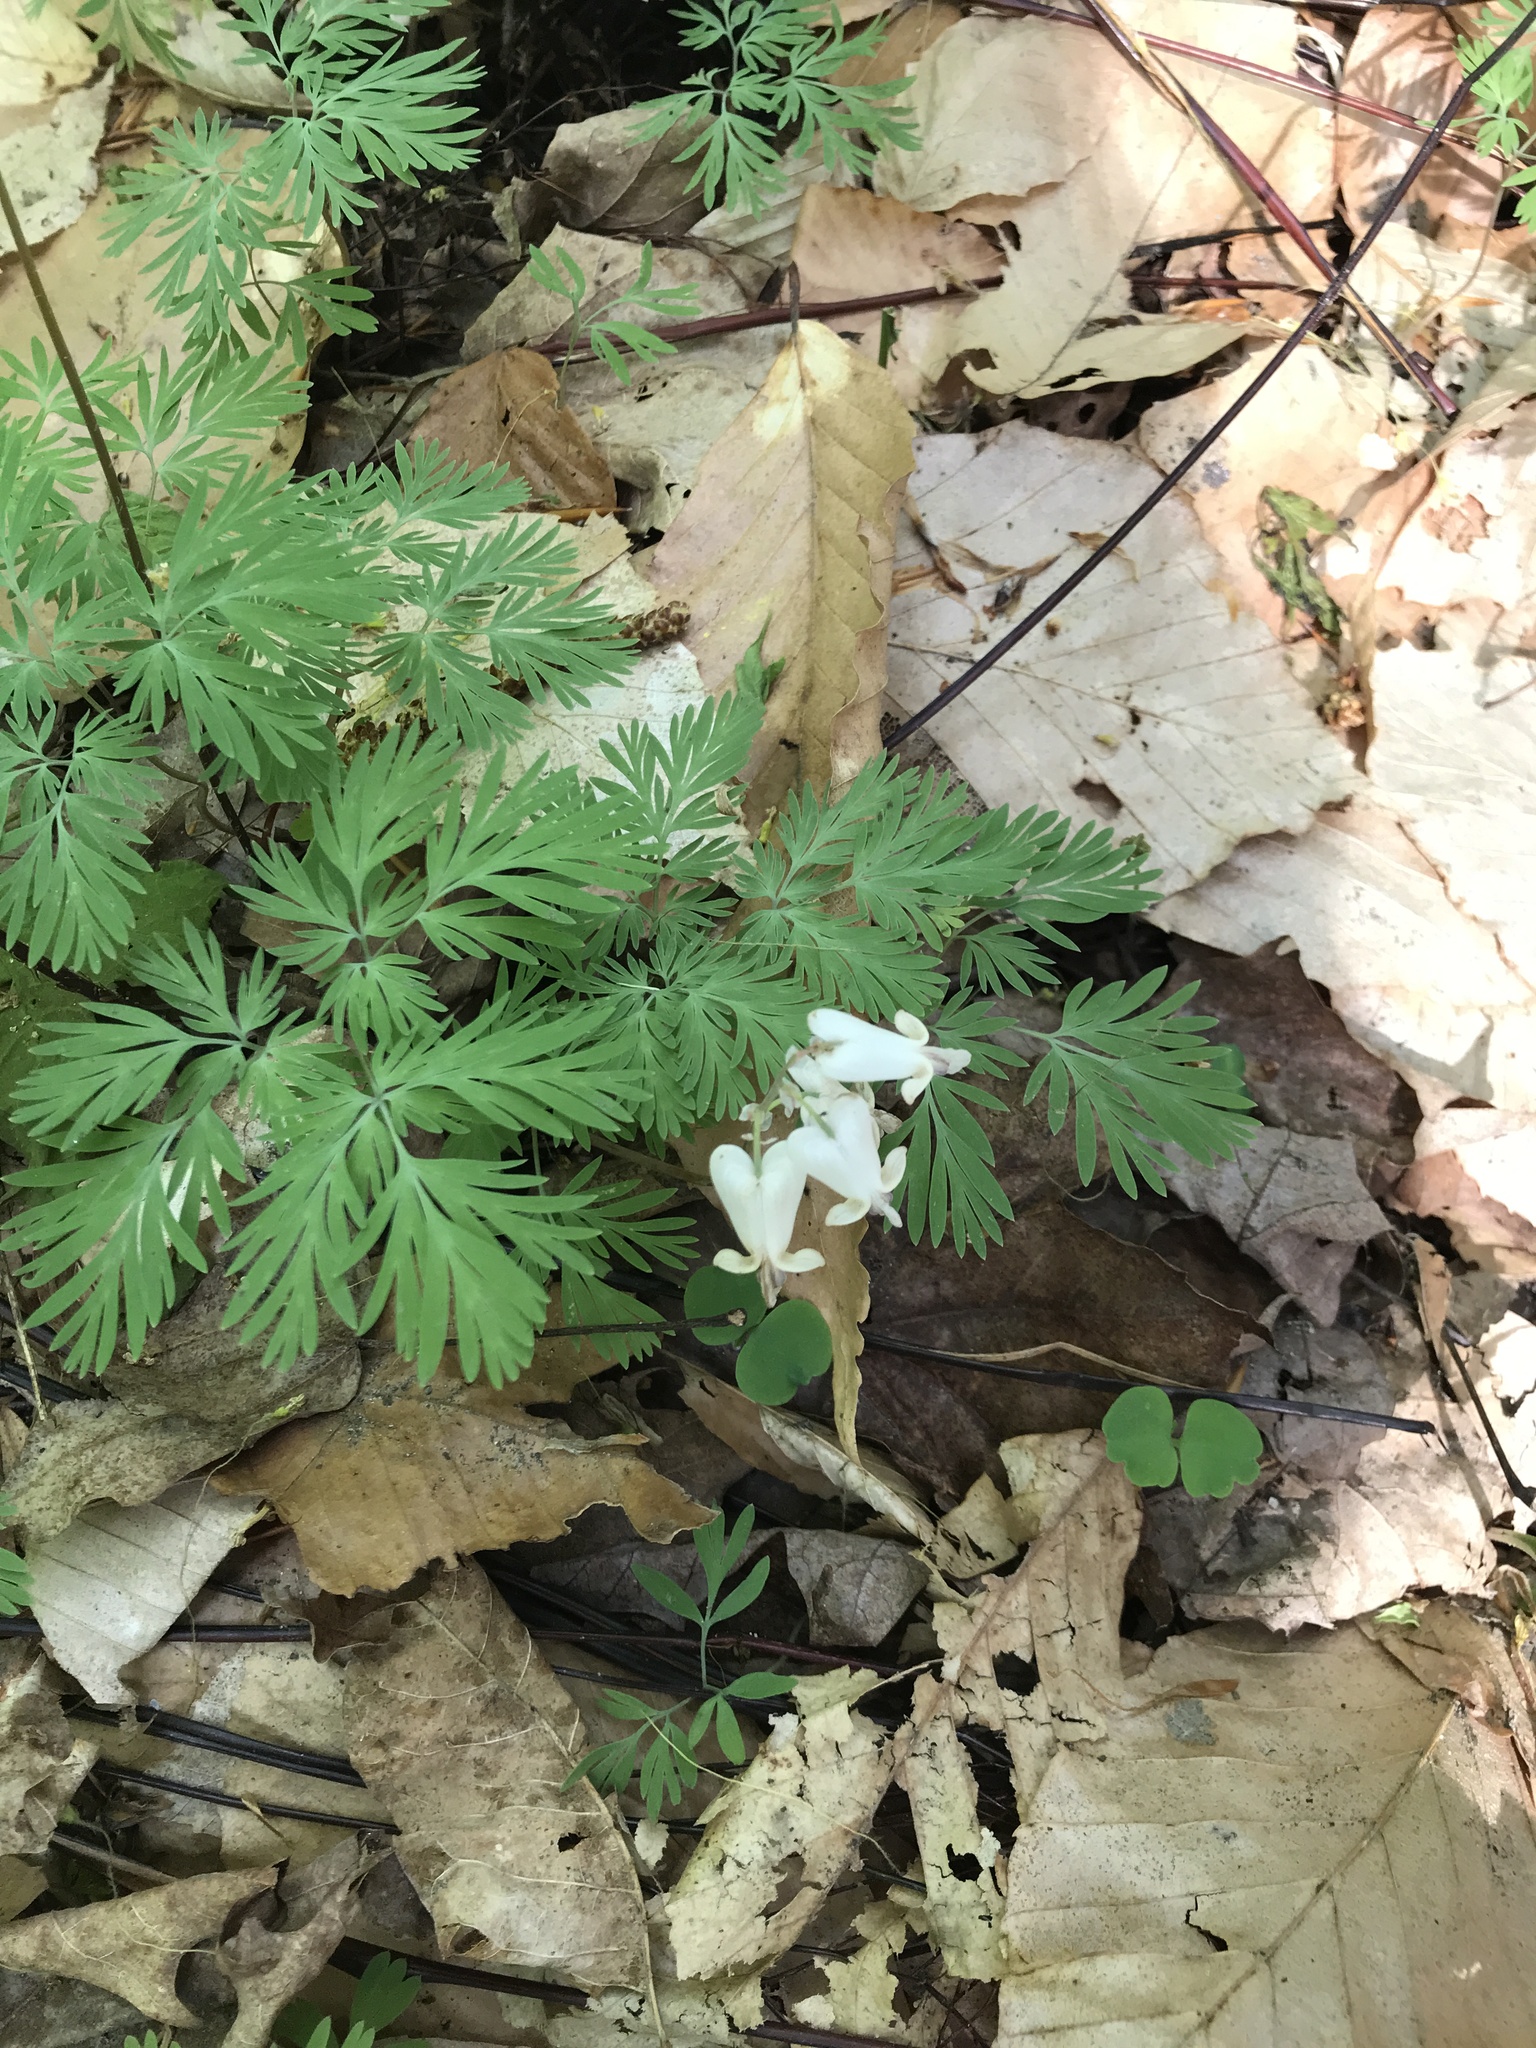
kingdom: Plantae
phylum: Tracheophyta
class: Magnoliopsida
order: Ranunculales
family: Papaveraceae
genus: Dicentra
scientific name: Dicentra canadensis
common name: Squirrel-corn
